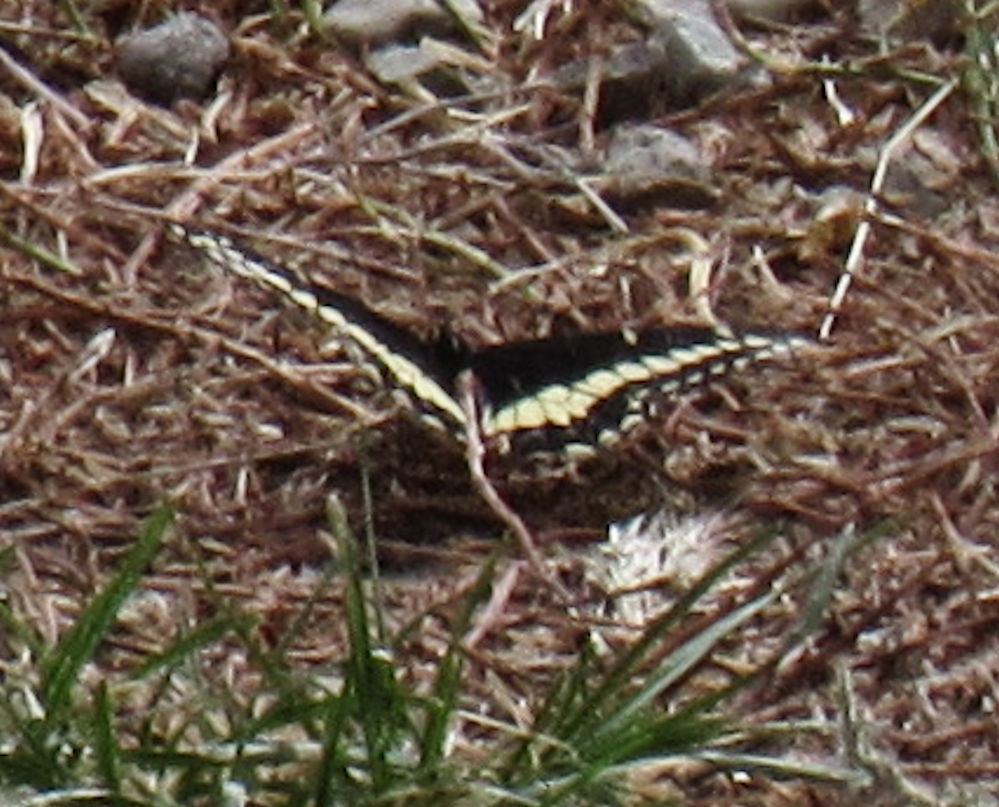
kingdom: Animalia
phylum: Arthropoda
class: Insecta
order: Lepidoptera
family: Papilionidae
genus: Papilio
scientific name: Papilio zelicaon
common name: Anise swallowtail
